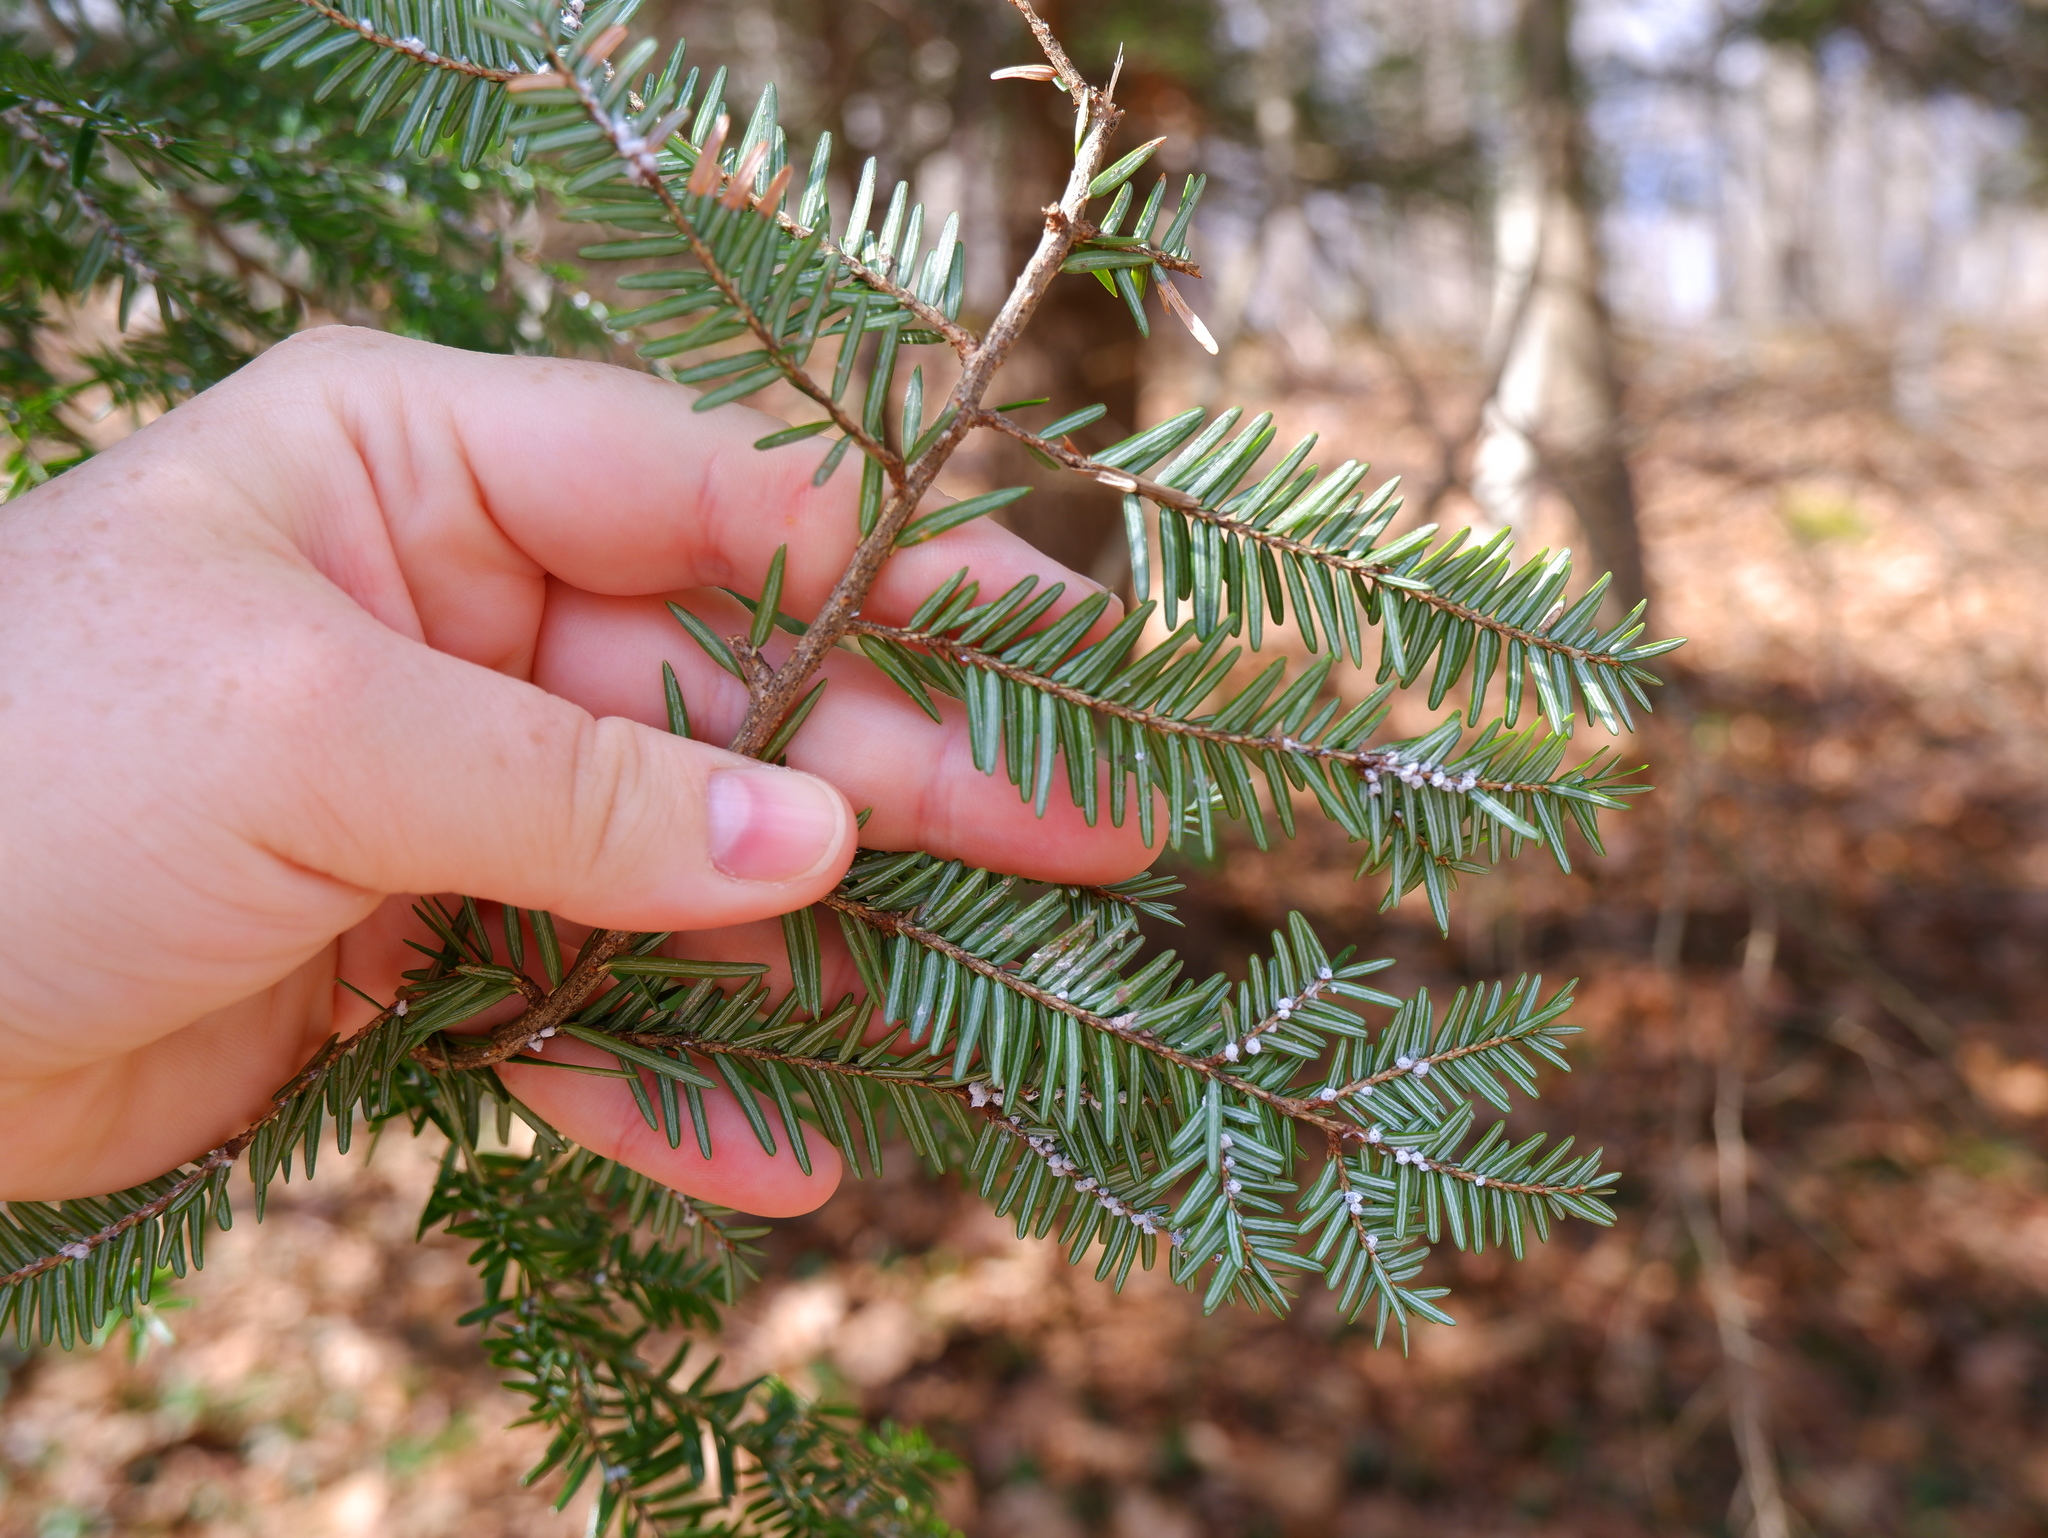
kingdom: Animalia
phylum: Arthropoda
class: Insecta
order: Hemiptera
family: Adelgidae
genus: Adelges
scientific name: Adelges tsugae
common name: Hemlock woolly adelgid
